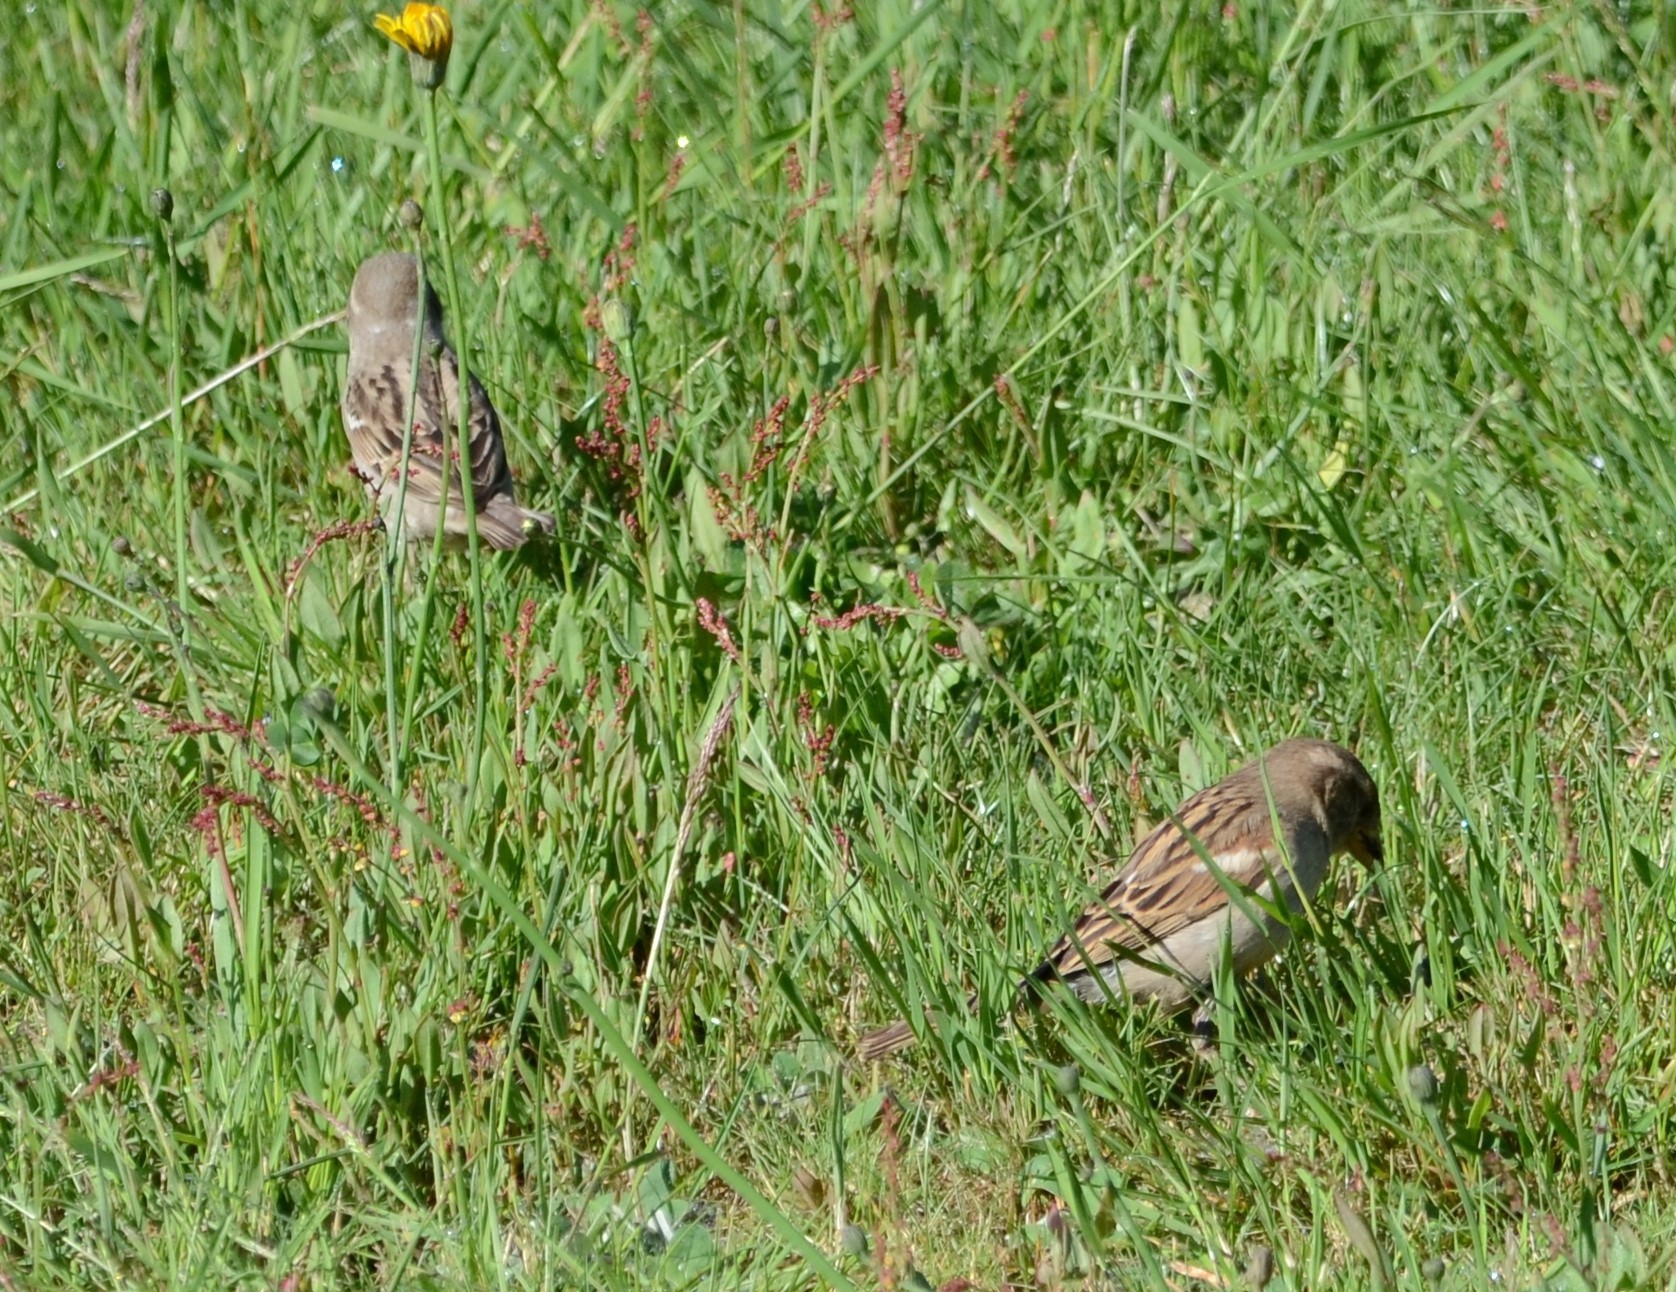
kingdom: Animalia
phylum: Chordata
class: Aves
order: Passeriformes
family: Passeridae
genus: Passer
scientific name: Passer domesticus
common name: House sparrow
